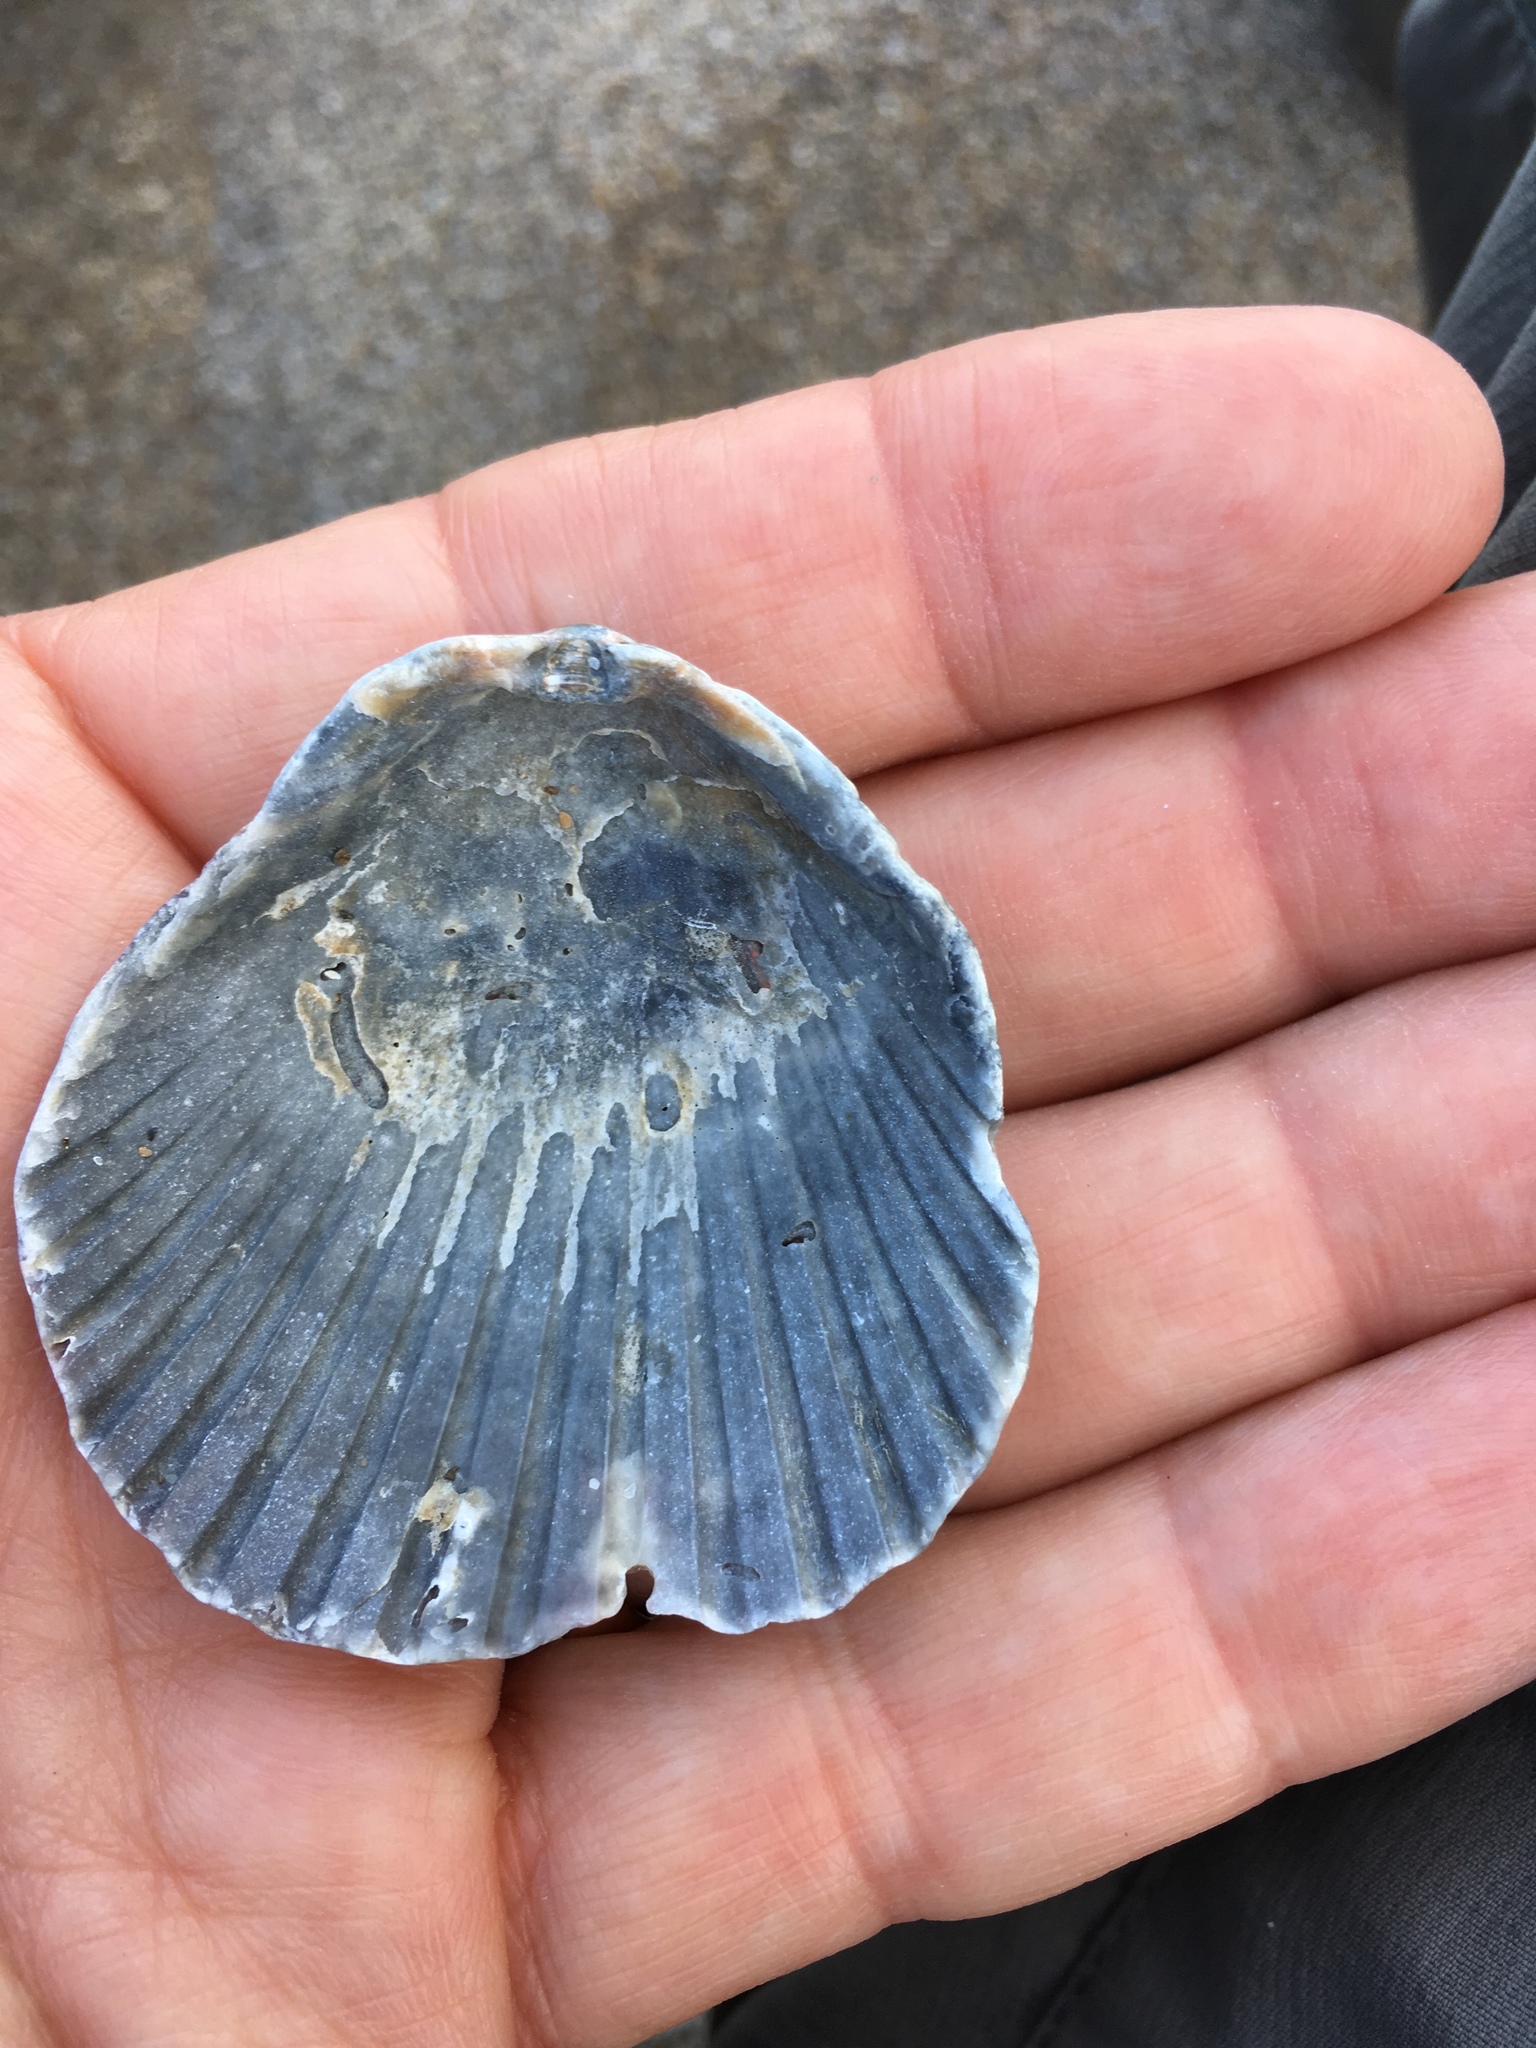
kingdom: Animalia
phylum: Mollusca
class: Bivalvia
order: Pectinida
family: Pectinidae
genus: Argopecten
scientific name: Argopecten gibbus
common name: Atlantic calico scallop
